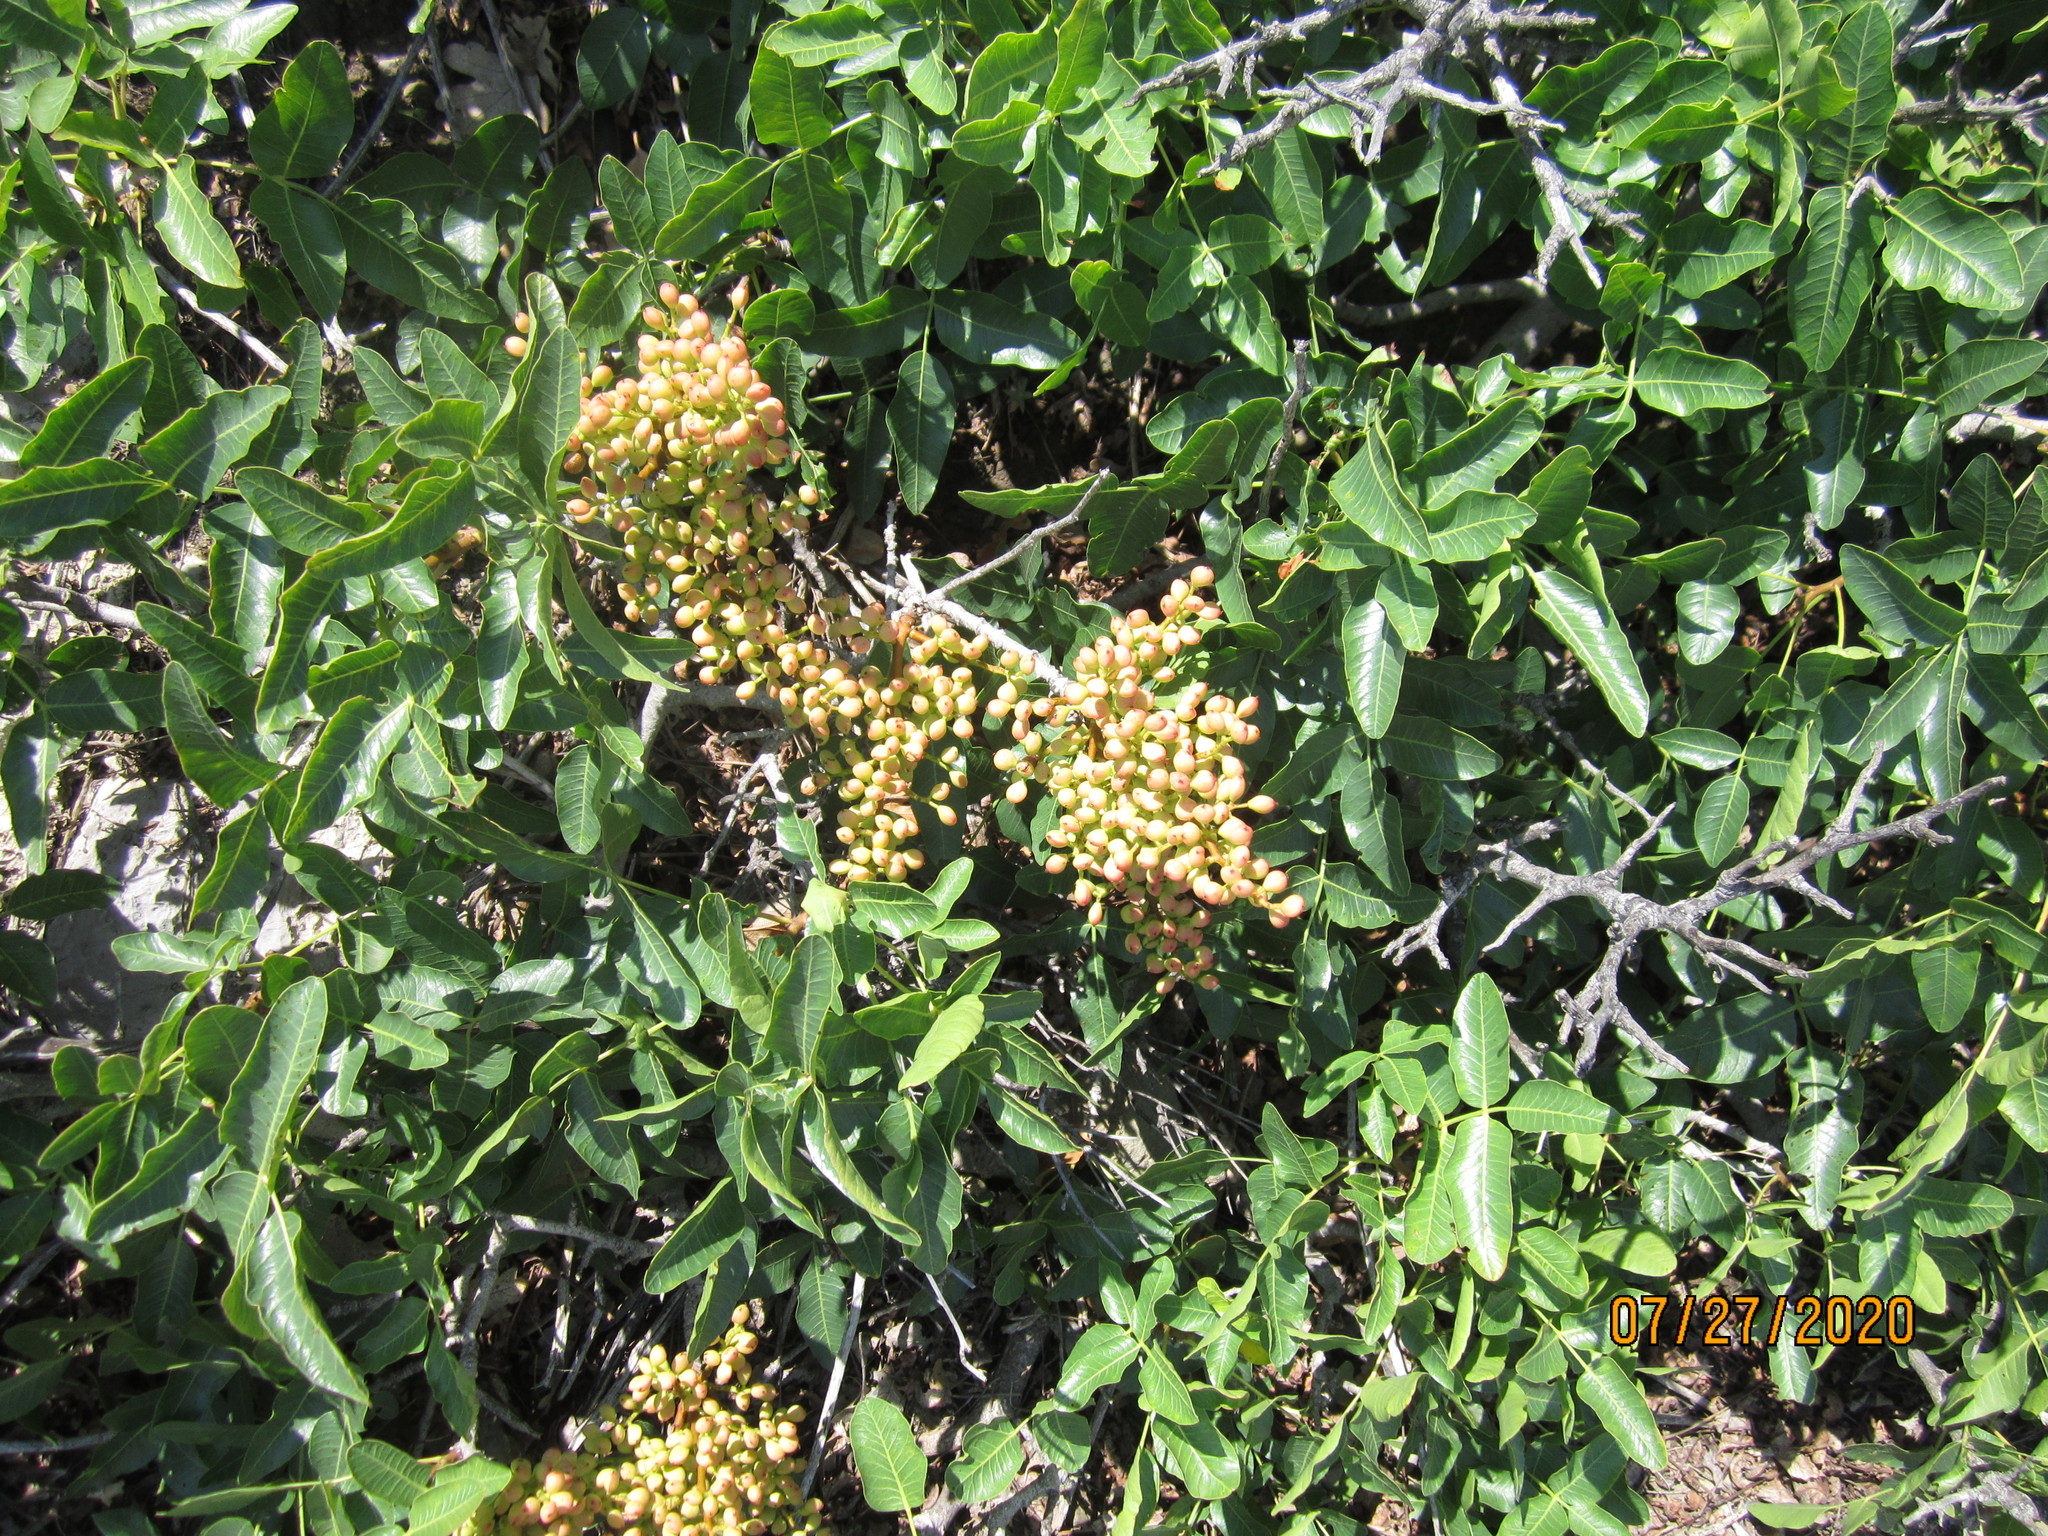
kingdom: Plantae
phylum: Tracheophyta
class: Magnoliopsida
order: Sapindales
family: Anacardiaceae
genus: Pistacia
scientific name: Pistacia atlantica
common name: Mt. atlas mastic tree
